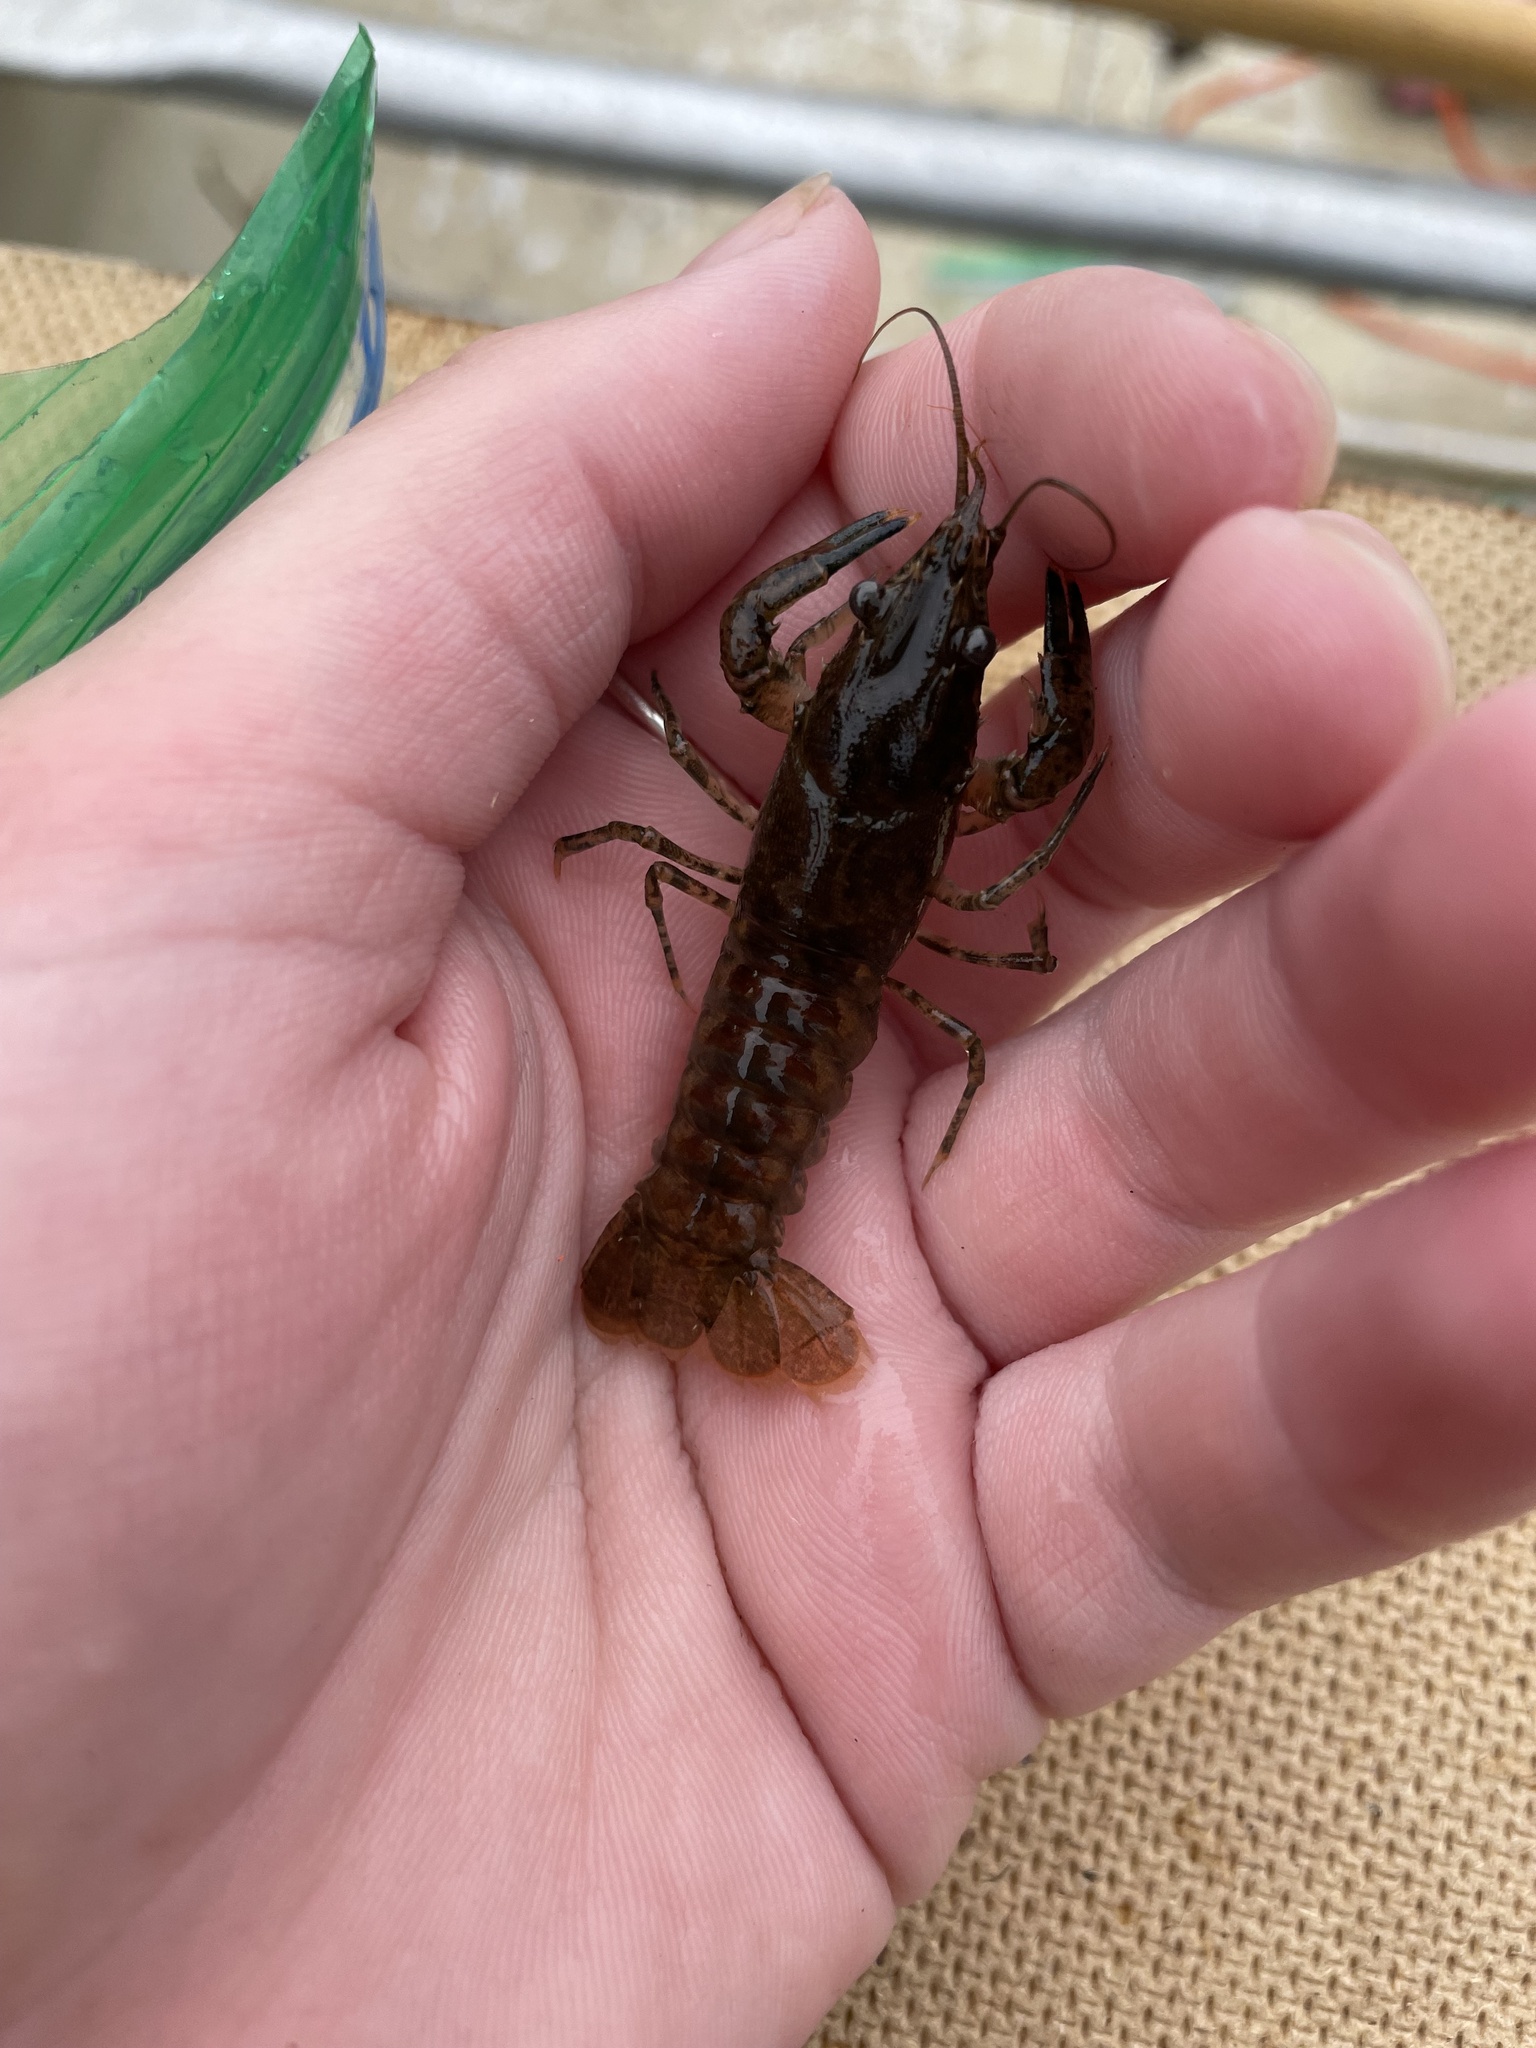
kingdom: Animalia
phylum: Arthropoda
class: Malacostraca
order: Decapoda
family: Cambaridae
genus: Faxonius
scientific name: Faxonius limosus
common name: American crayfish
